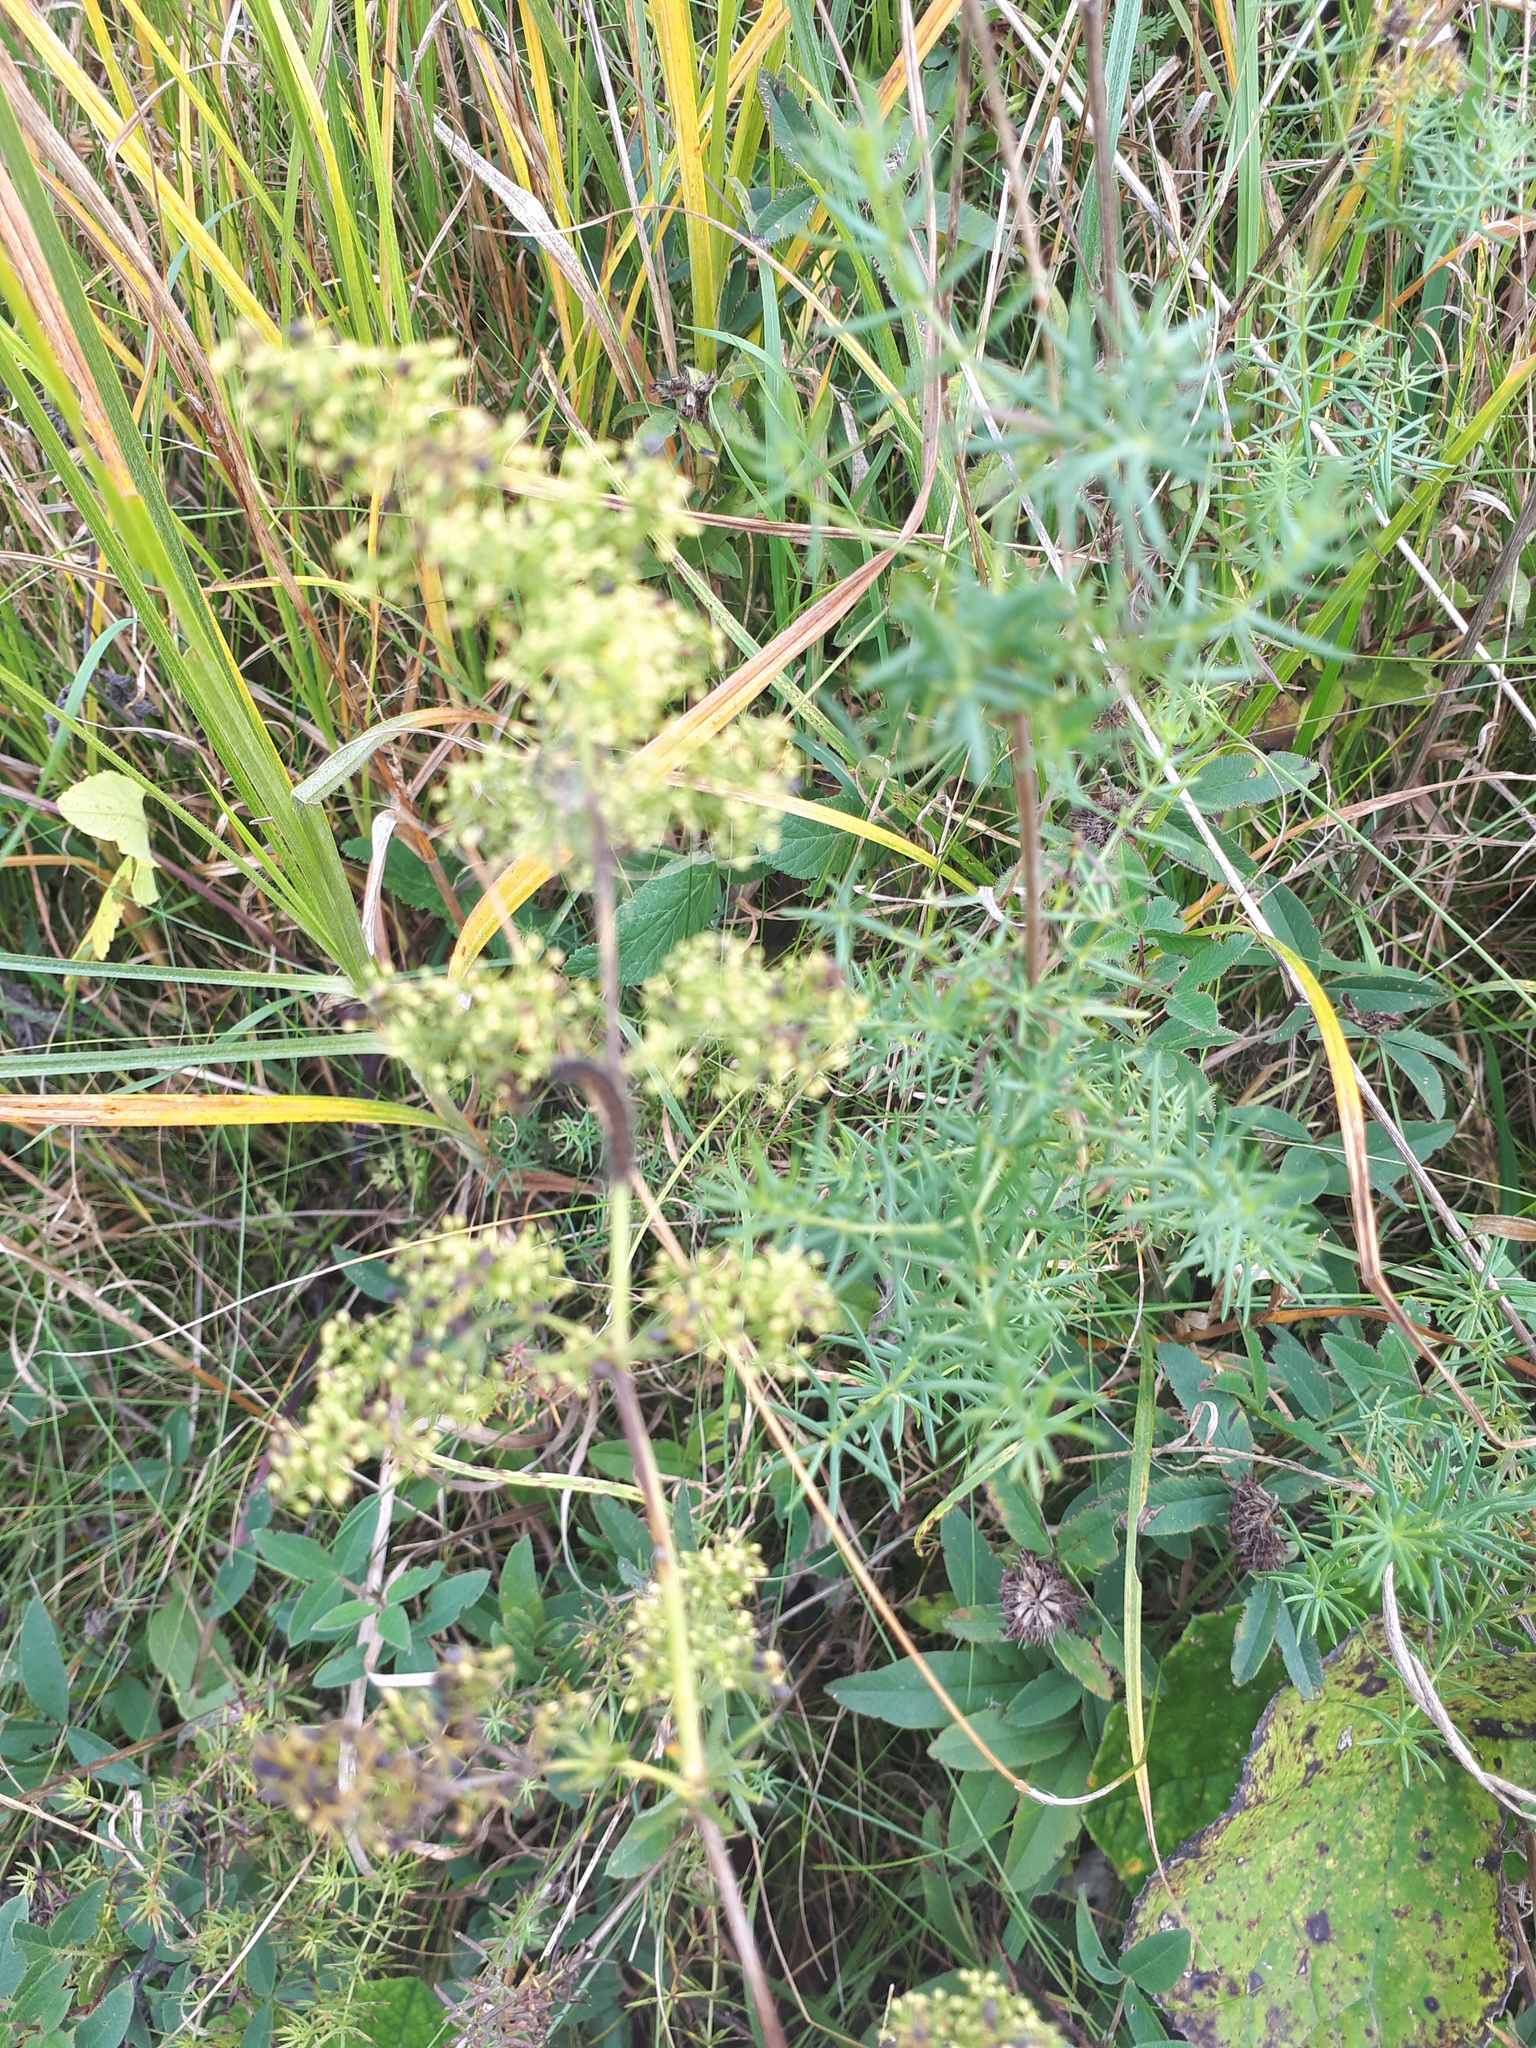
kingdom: Plantae
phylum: Tracheophyta
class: Magnoliopsida
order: Gentianales
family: Rubiaceae
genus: Galium
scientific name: Galium verum
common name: Lady's bedstraw
